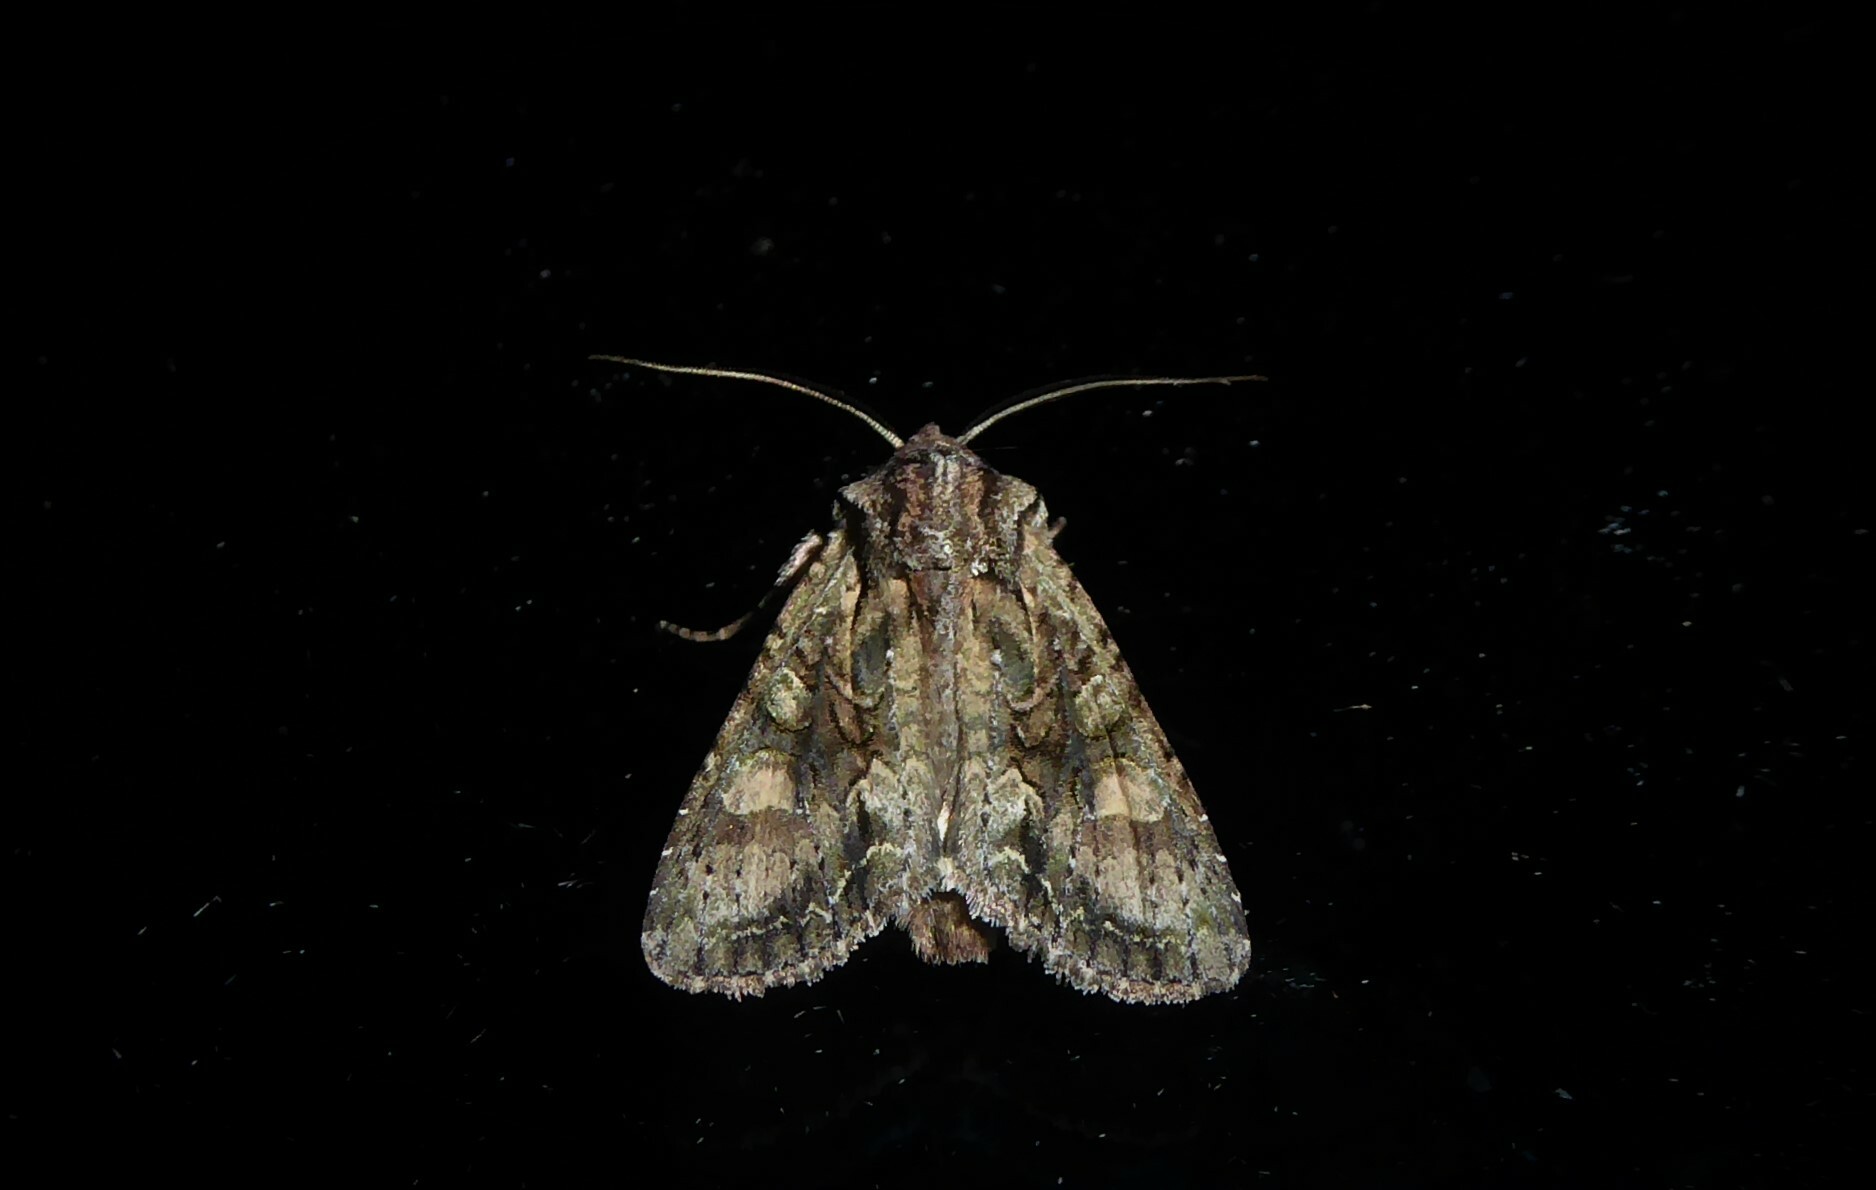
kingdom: Animalia
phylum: Arthropoda
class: Insecta
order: Lepidoptera
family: Noctuidae
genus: Ichneutica
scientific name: Ichneutica mutans
